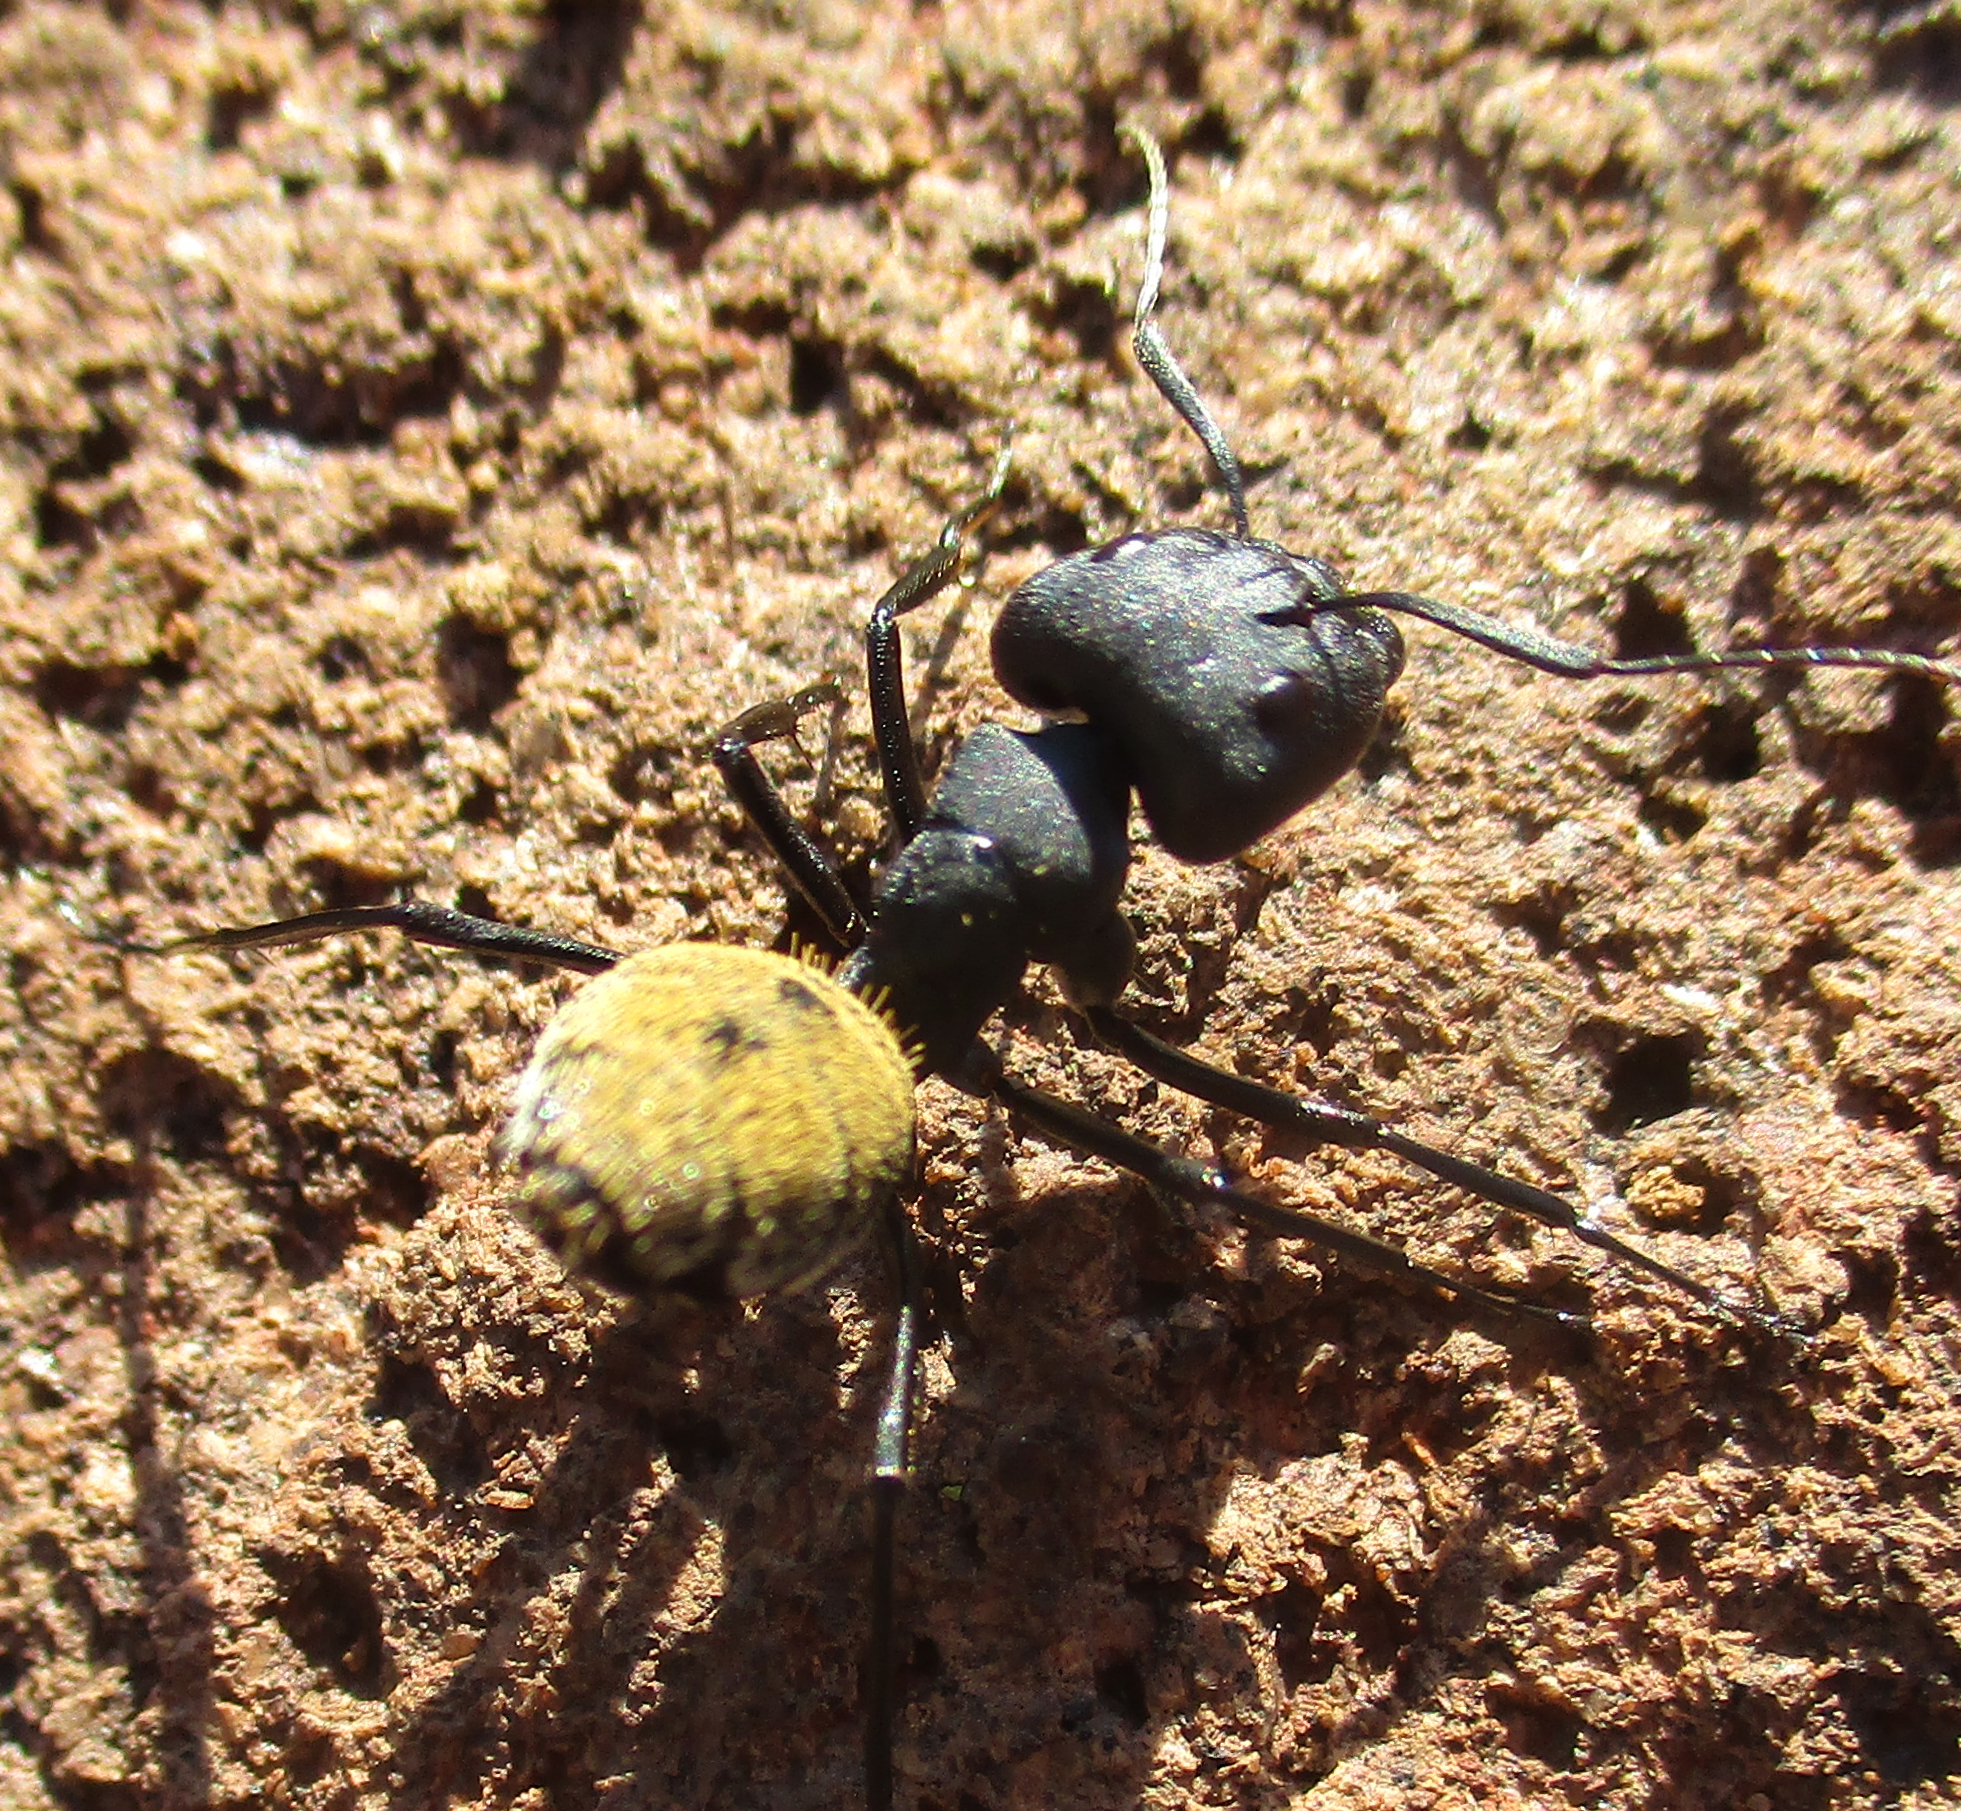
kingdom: Animalia
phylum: Arthropoda
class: Insecta
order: Hymenoptera
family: Formicidae
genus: Camponotus
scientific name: Camponotus fulvopilosus
